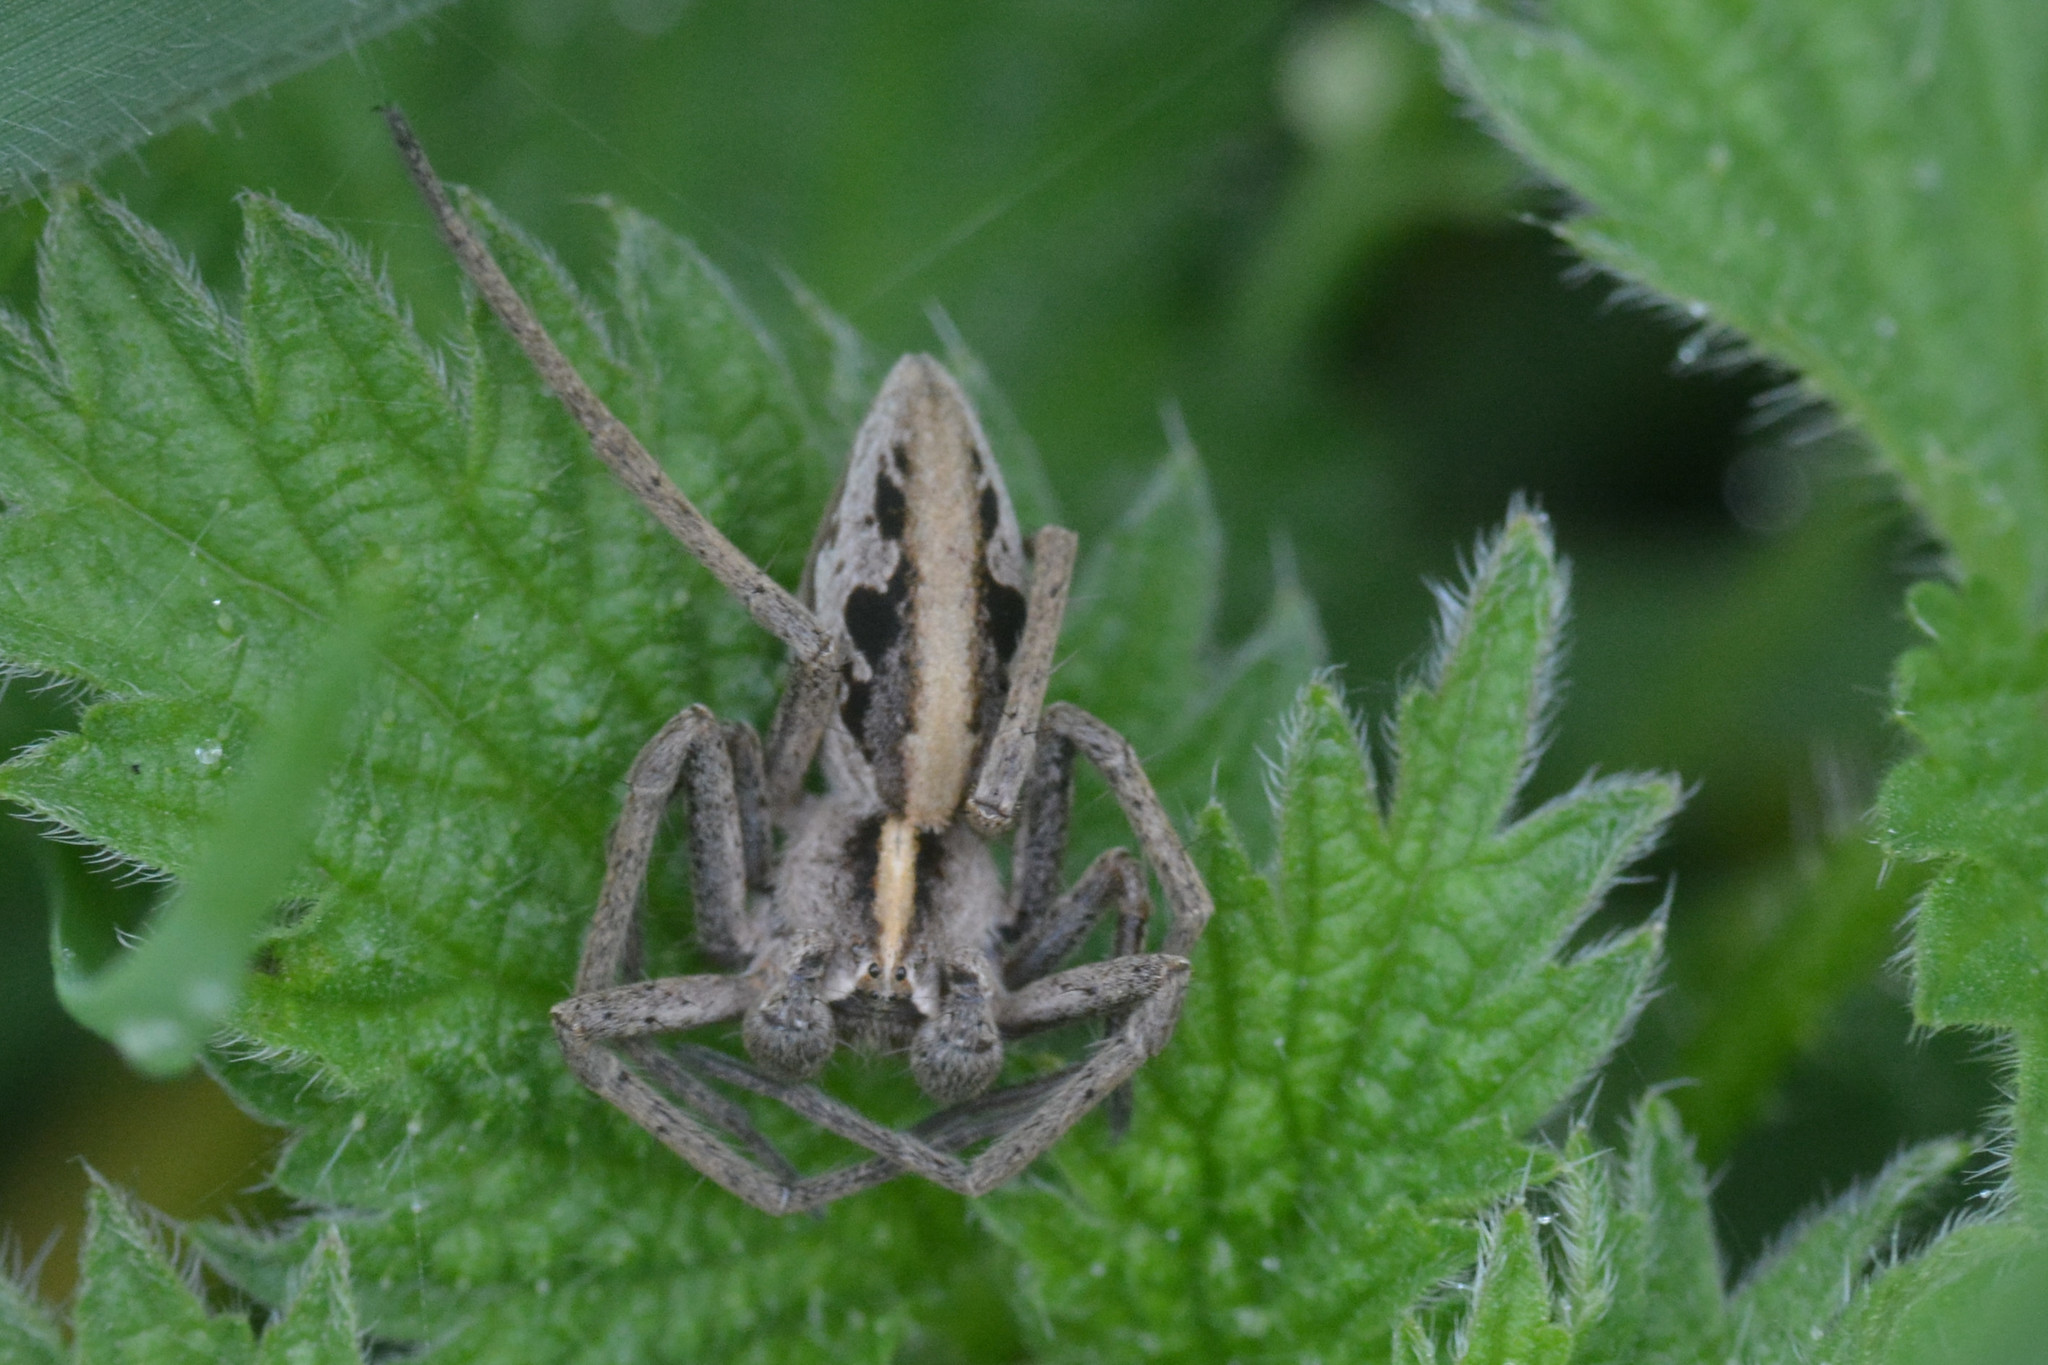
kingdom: Animalia
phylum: Arthropoda
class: Arachnida
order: Araneae
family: Pisauridae
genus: Pisaura
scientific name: Pisaura mirabilis
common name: Tent spider
